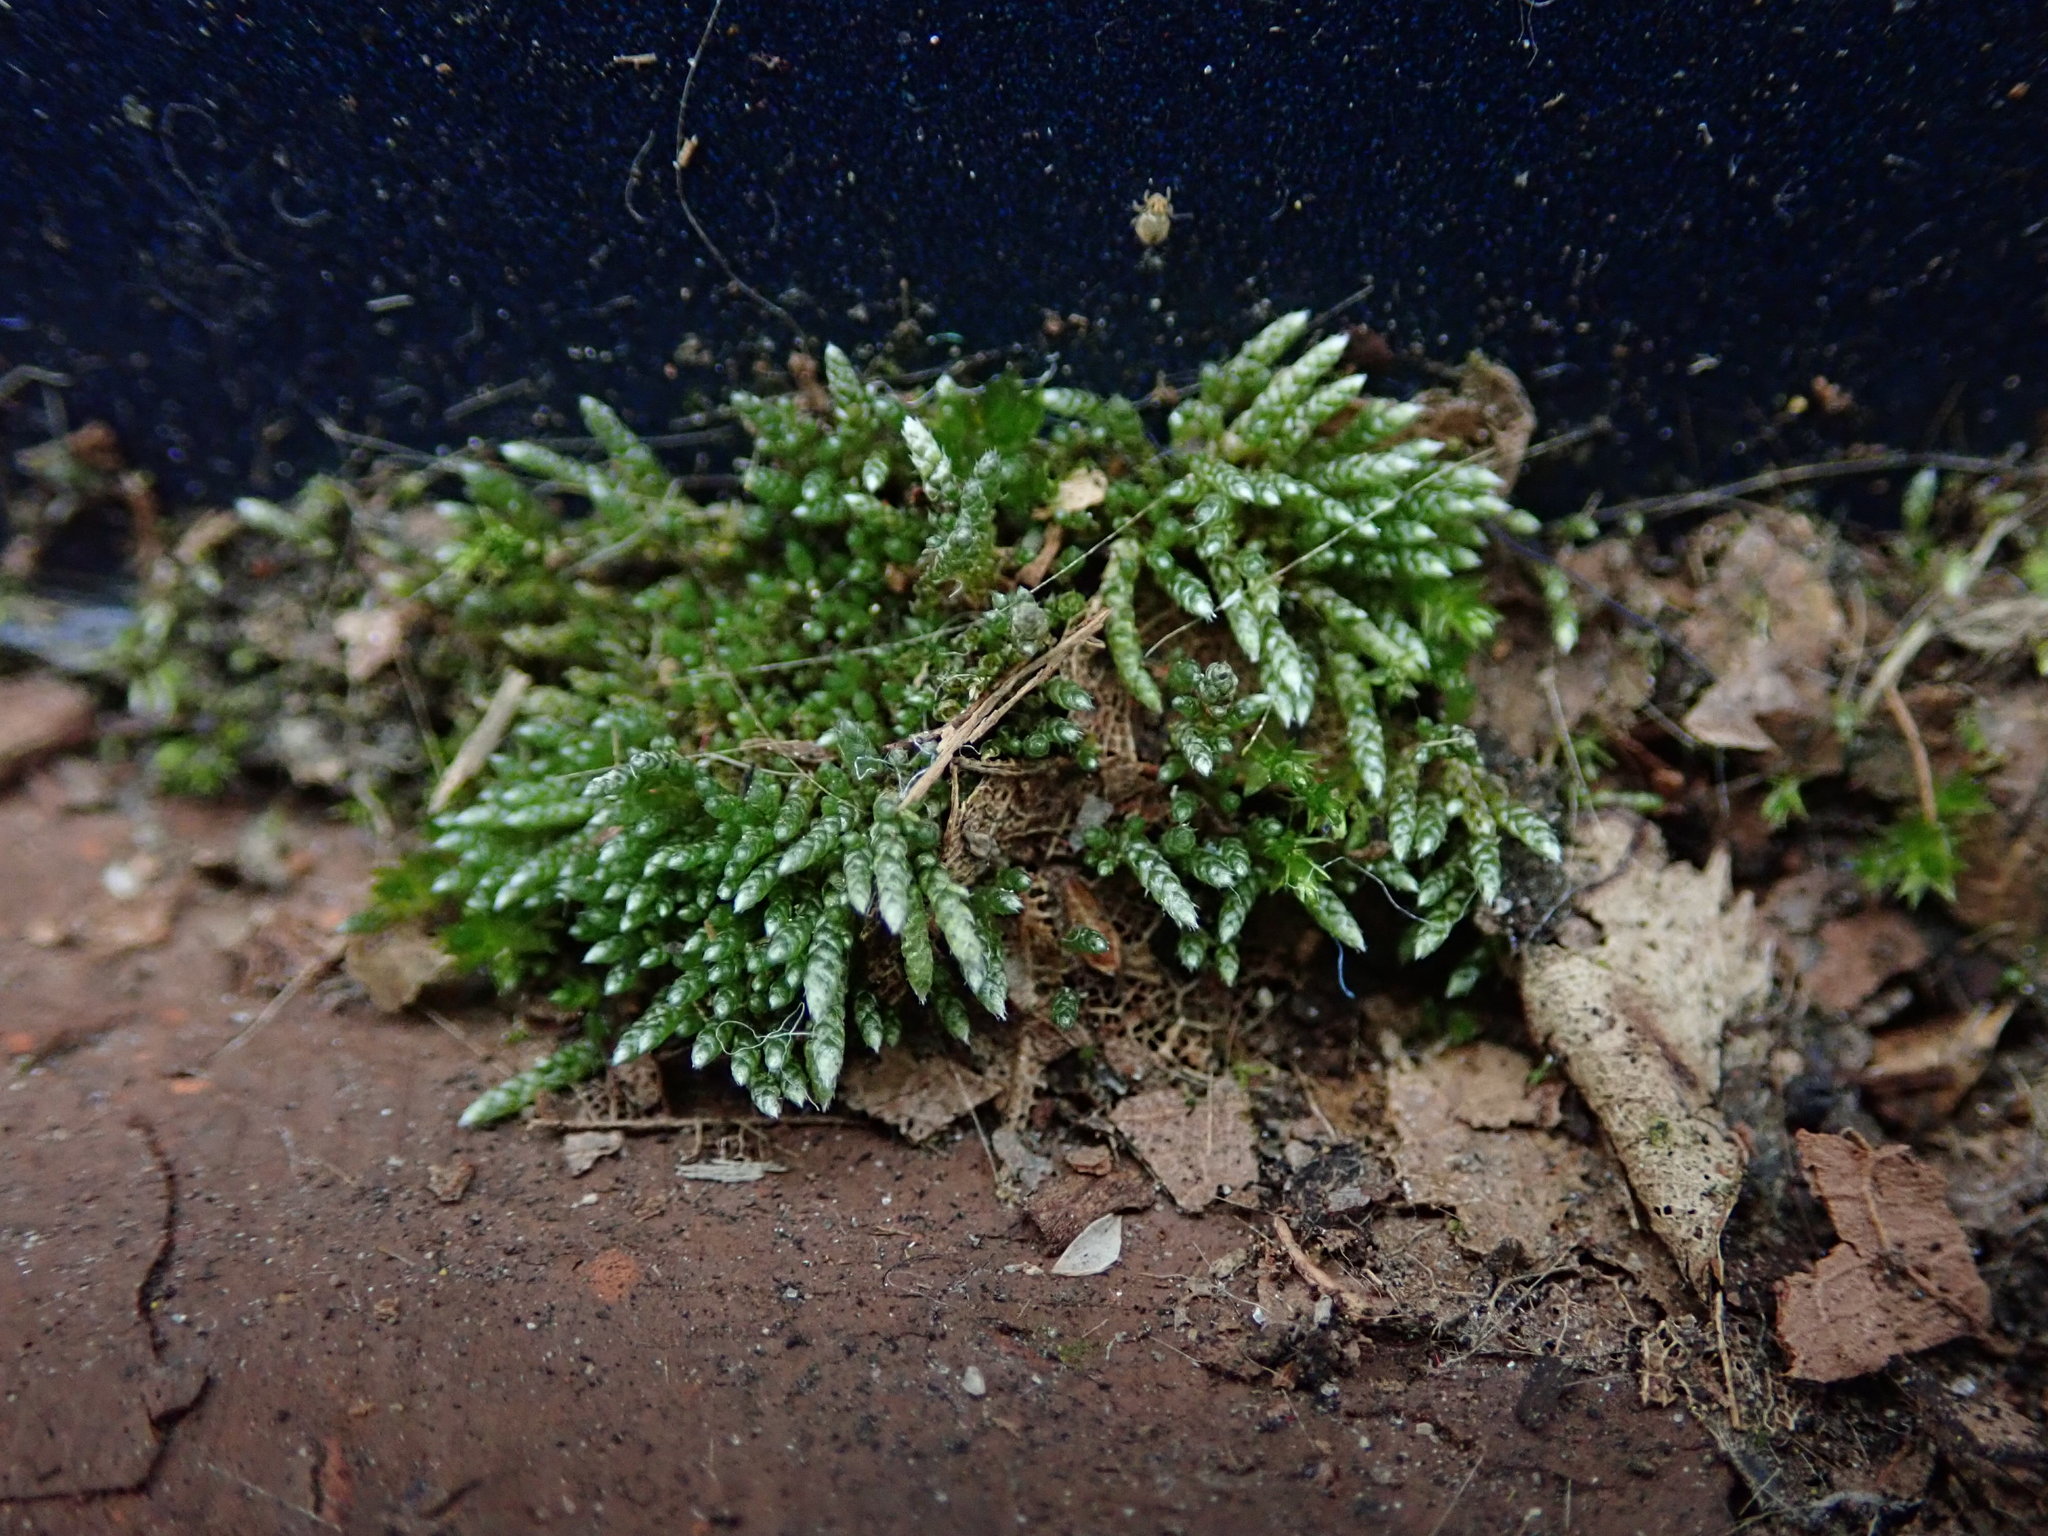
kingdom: Plantae
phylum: Bryophyta
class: Bryopsida
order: Bryales
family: Bryaceae
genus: Bryum
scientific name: Bryum argenteum
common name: Silver-moss
